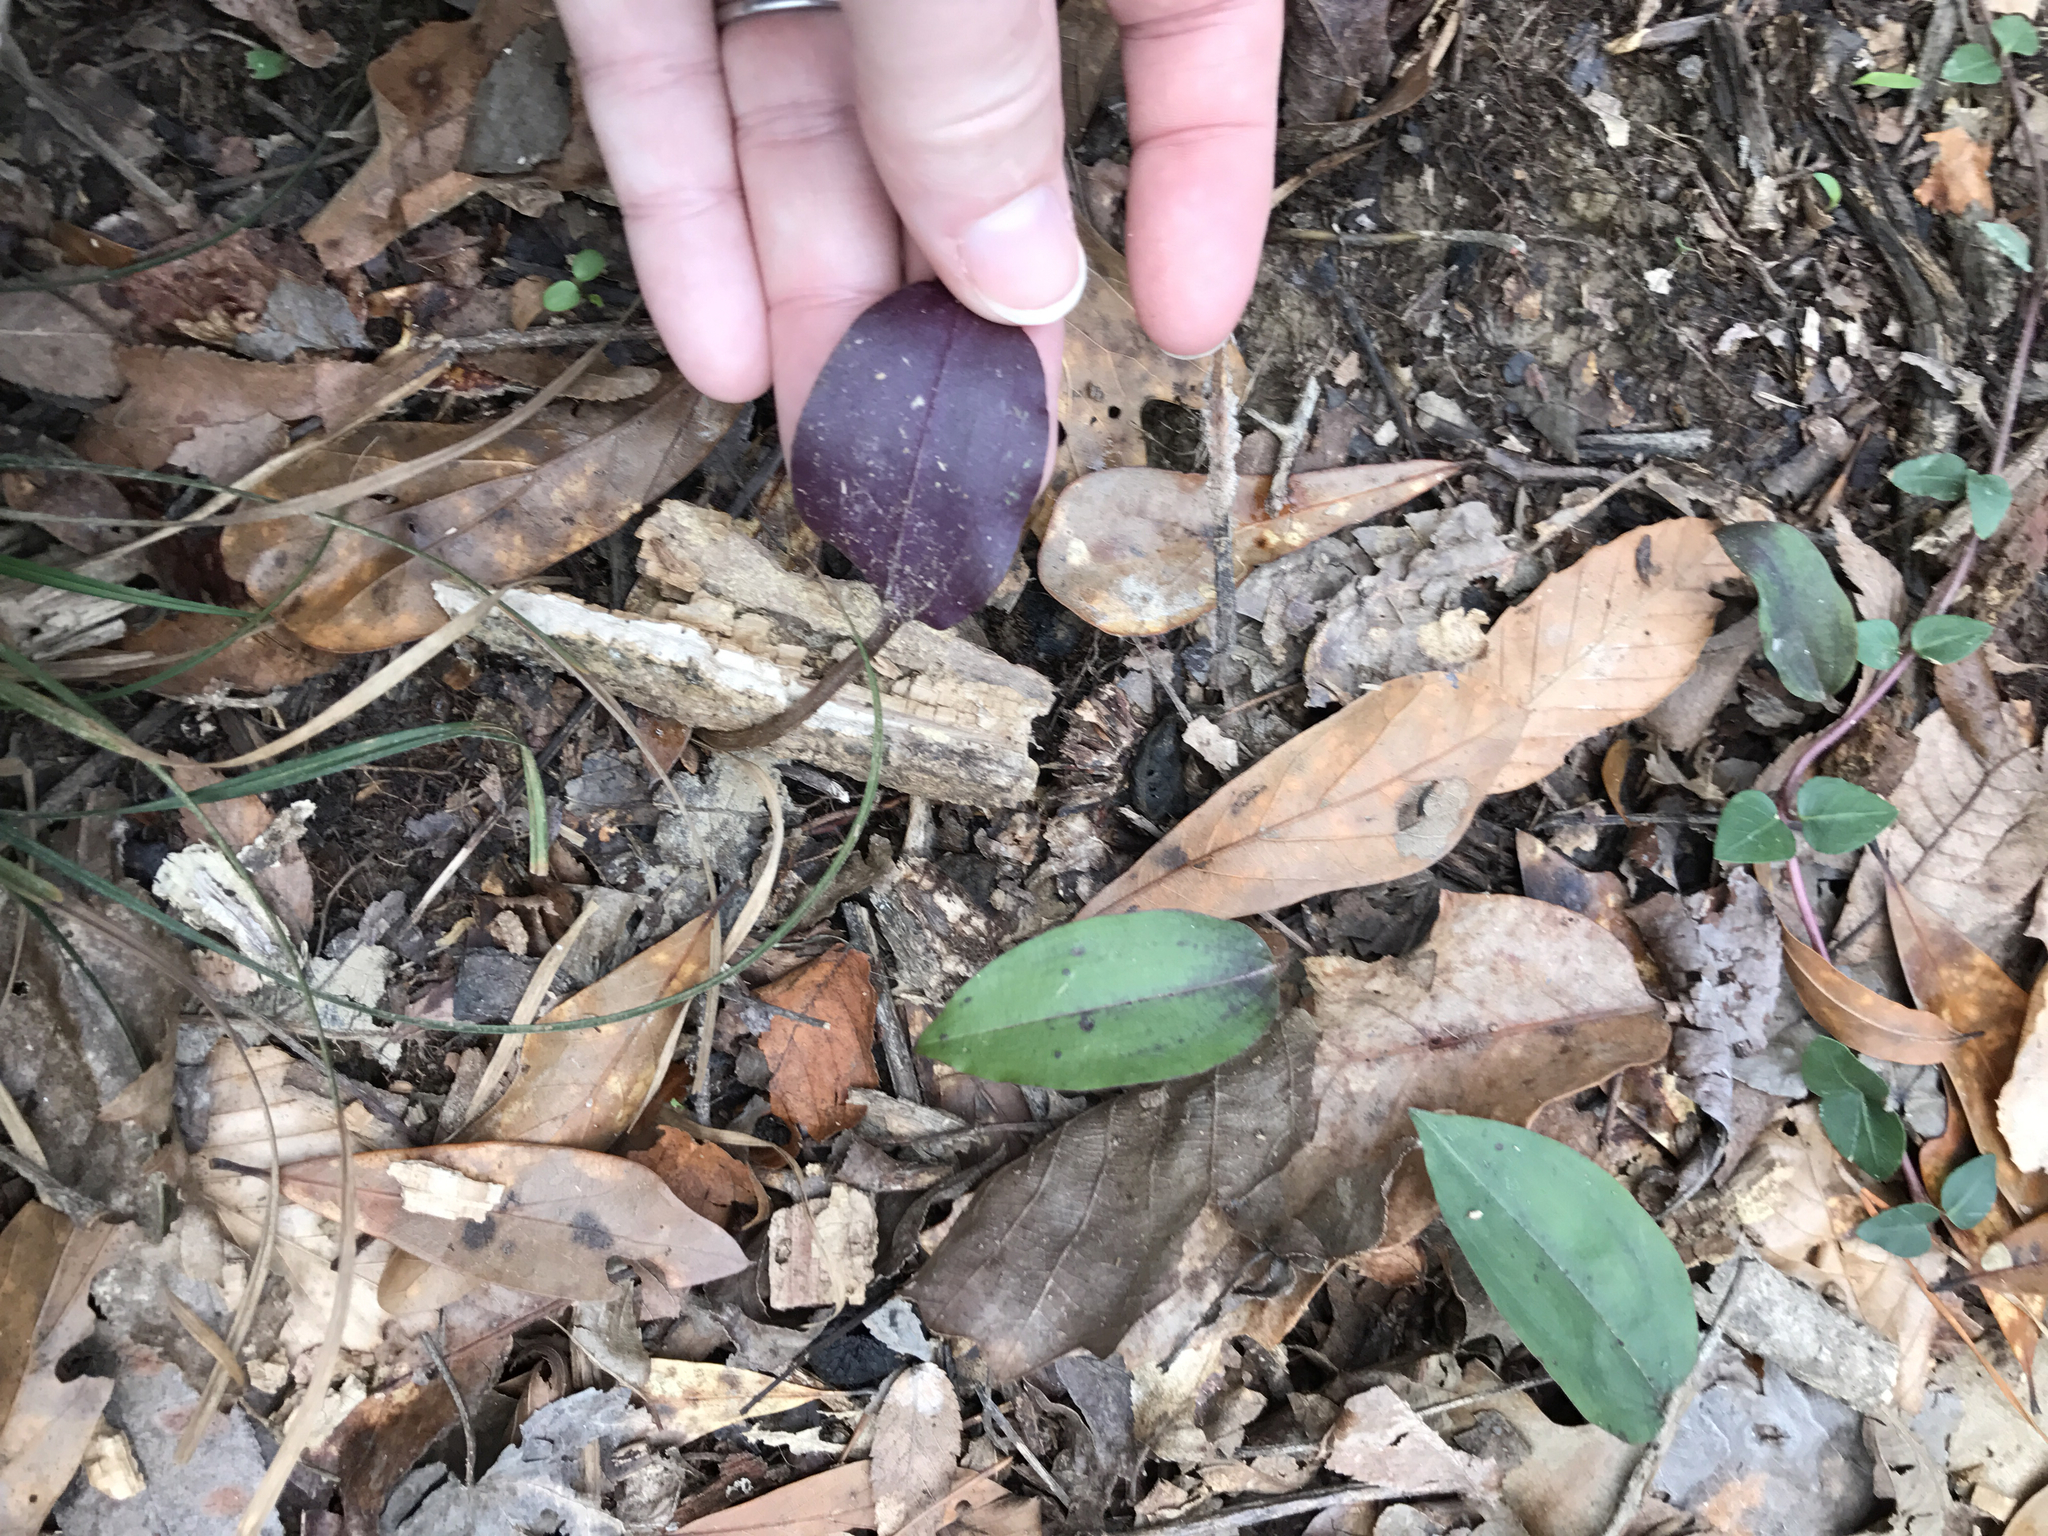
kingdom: Plantae
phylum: Tracheophyta
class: Liliopsida
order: Asparagales
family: Orchidaceae
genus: Tipularia
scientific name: Tipularia discolor
